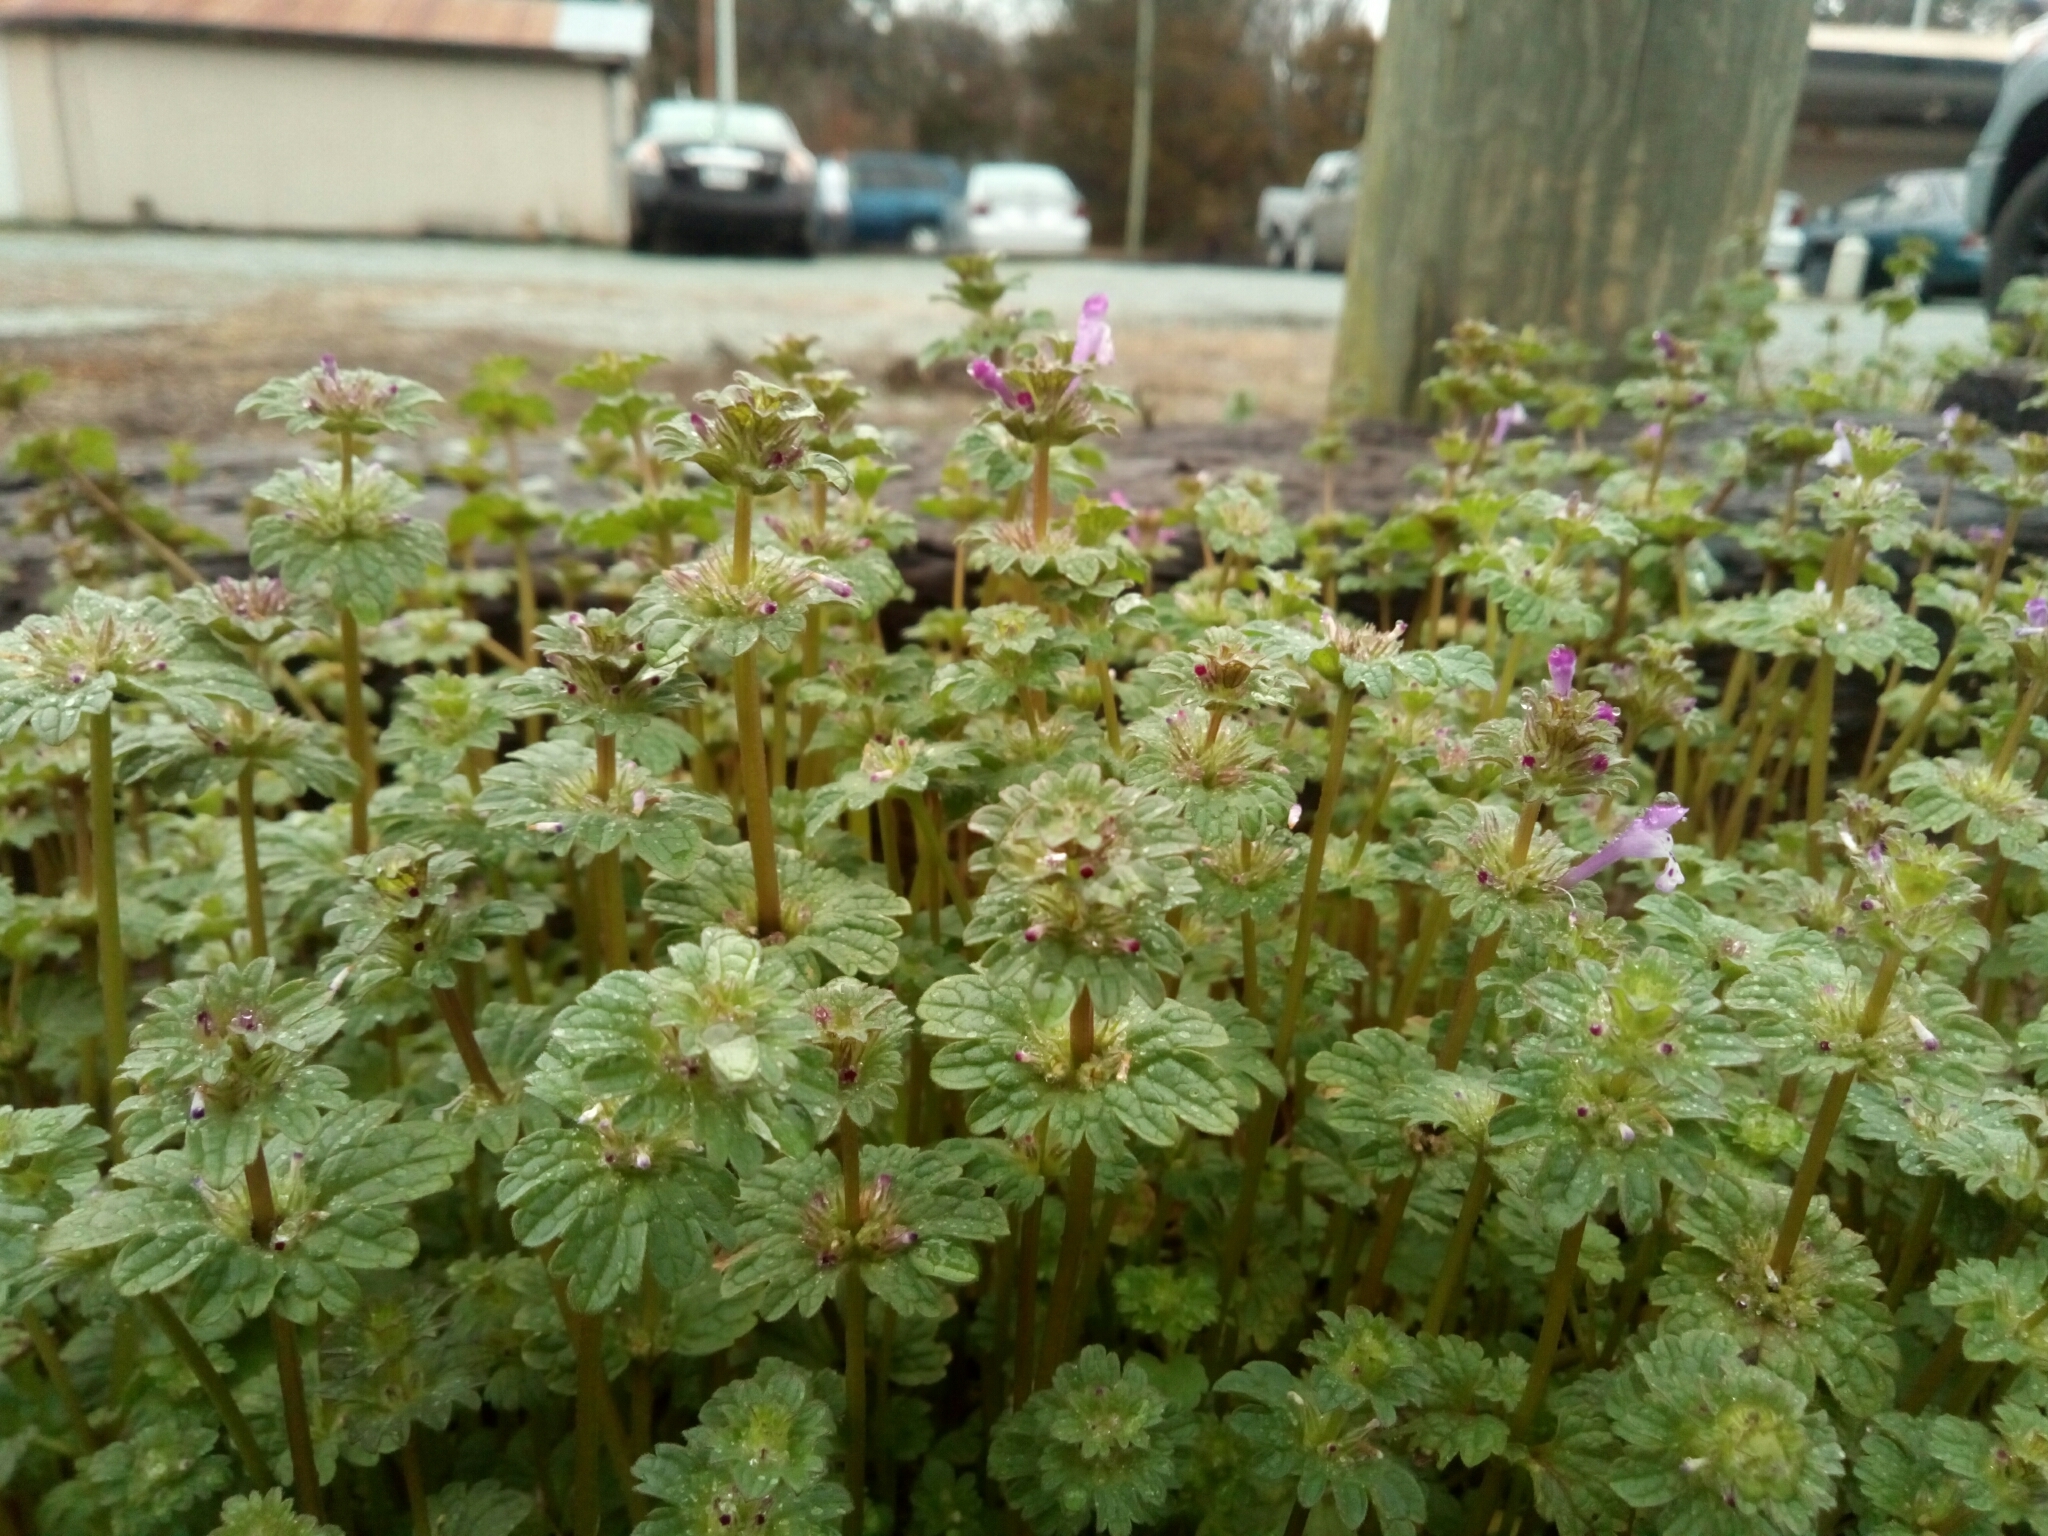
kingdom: Plantae
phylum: Tracheophyta
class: Magnoliopsida
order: Lamiales
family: Lamiaceae
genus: Lamium
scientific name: Lamium amplexicaule
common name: Henbit dead-nettle
